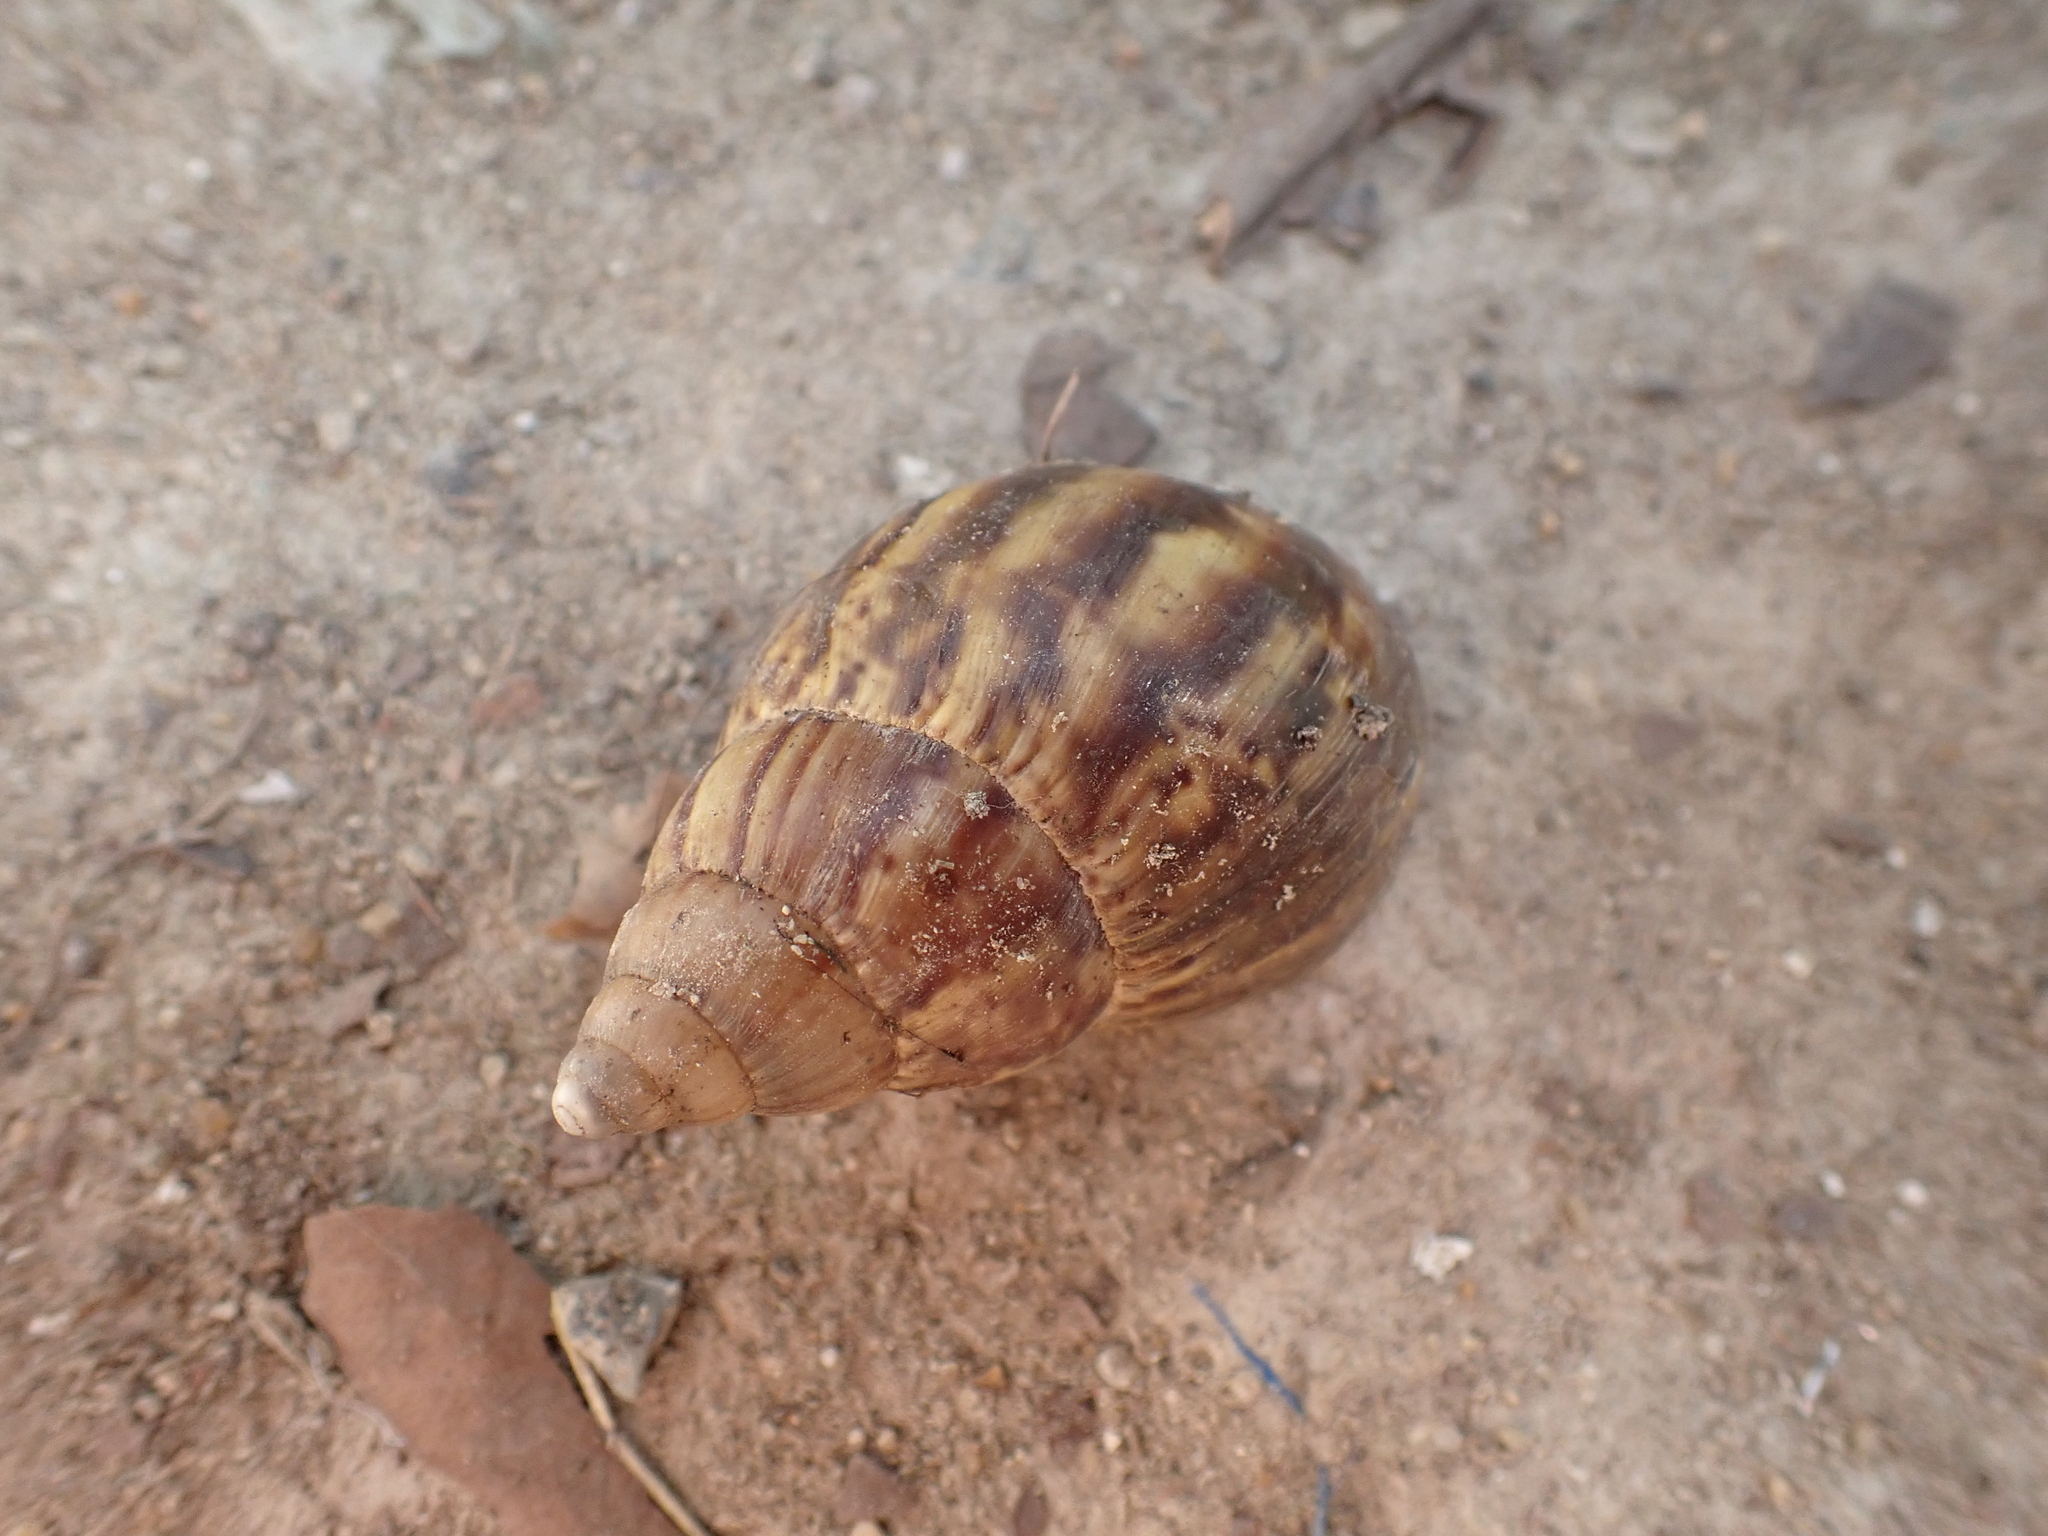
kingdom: Animalia
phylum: Mollusca
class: Gastropoda
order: Stylommatophora
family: Achatinidae
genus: Lissachatina
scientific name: Lissachatina fulica
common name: Giant african snail
